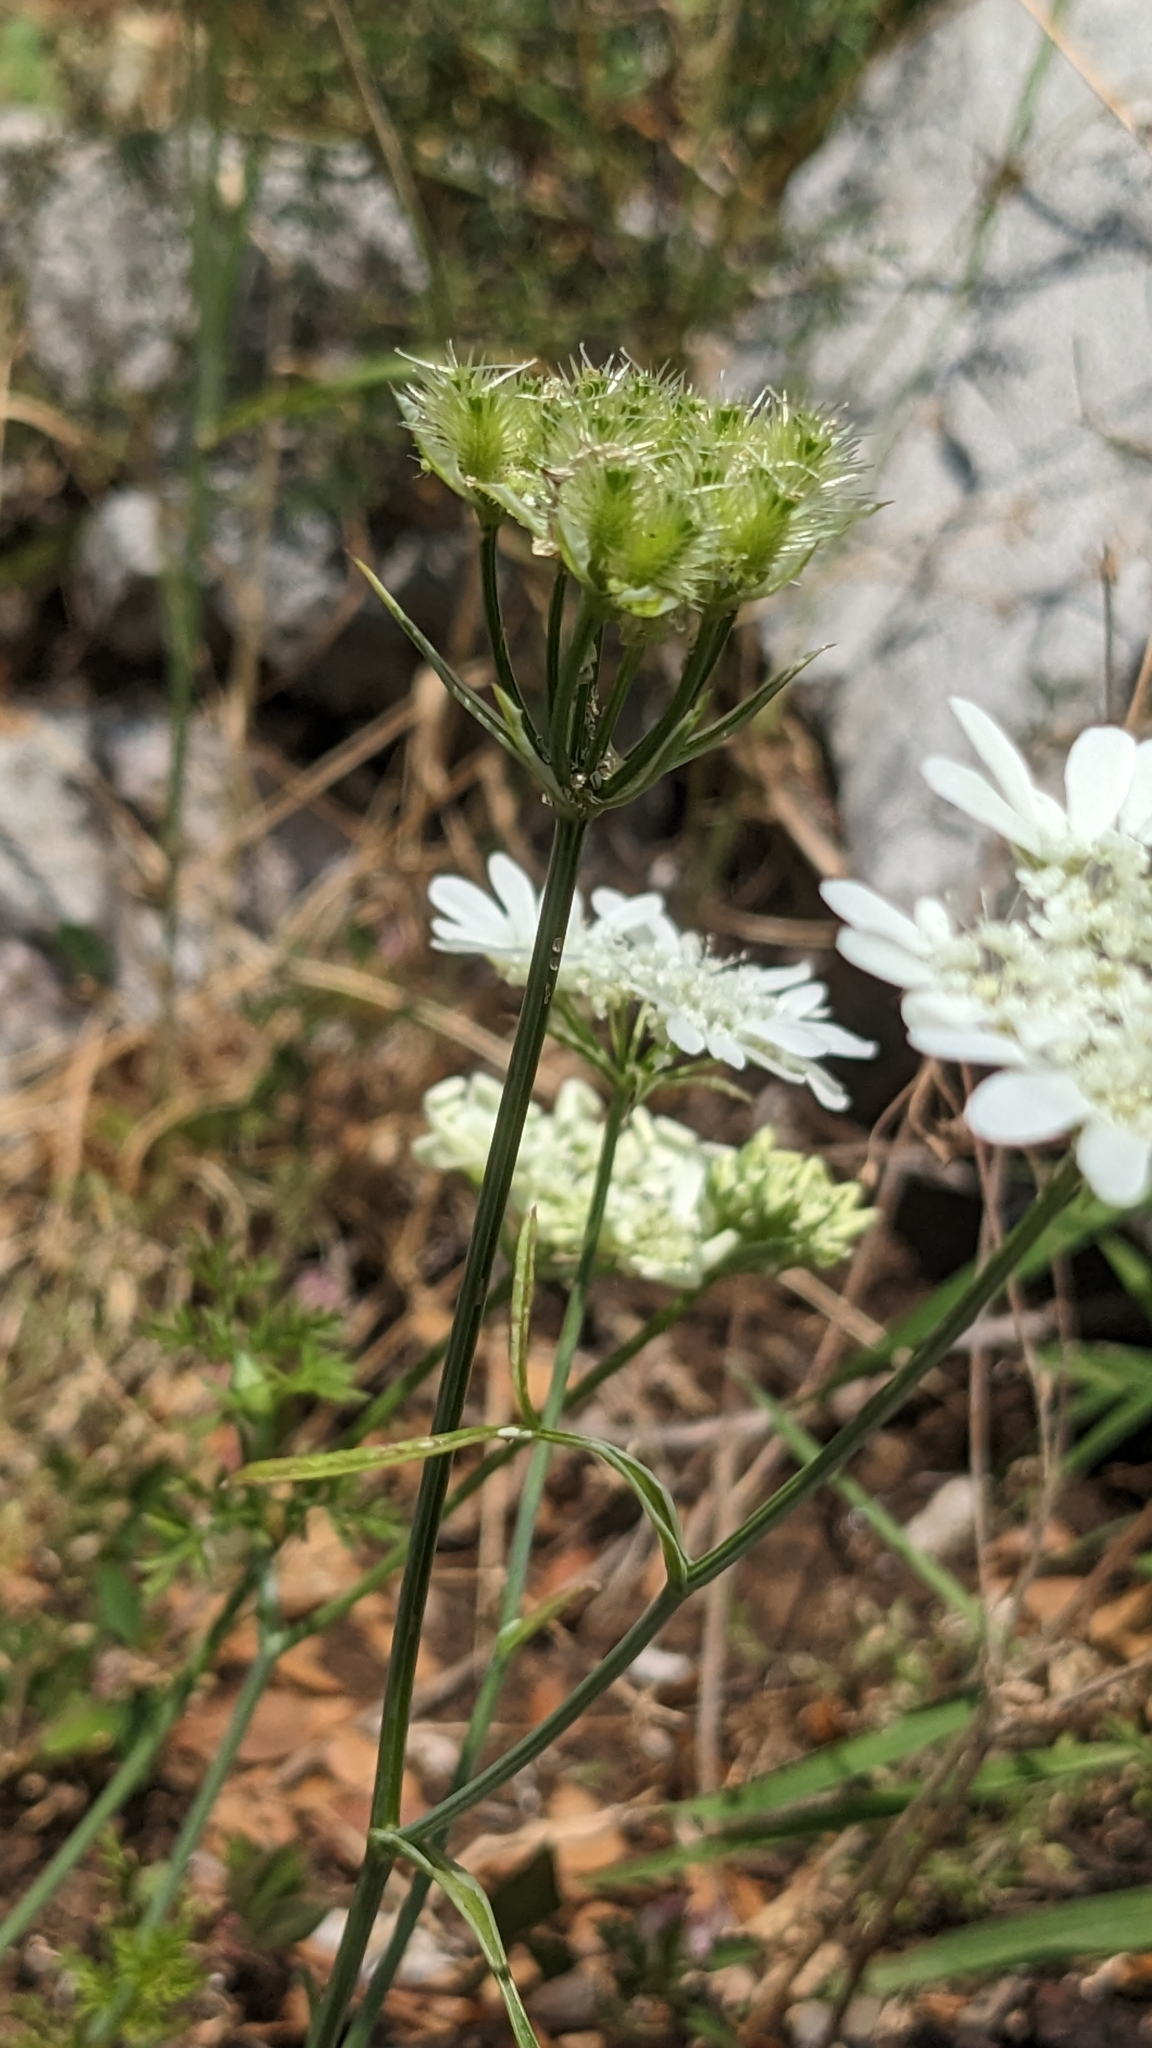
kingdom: Plantae
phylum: Tracheophyta
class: Magnoliopsida
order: Apiales
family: Apiaceae
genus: Orlaya
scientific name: Orlaya grandiflora
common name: White lace flower
